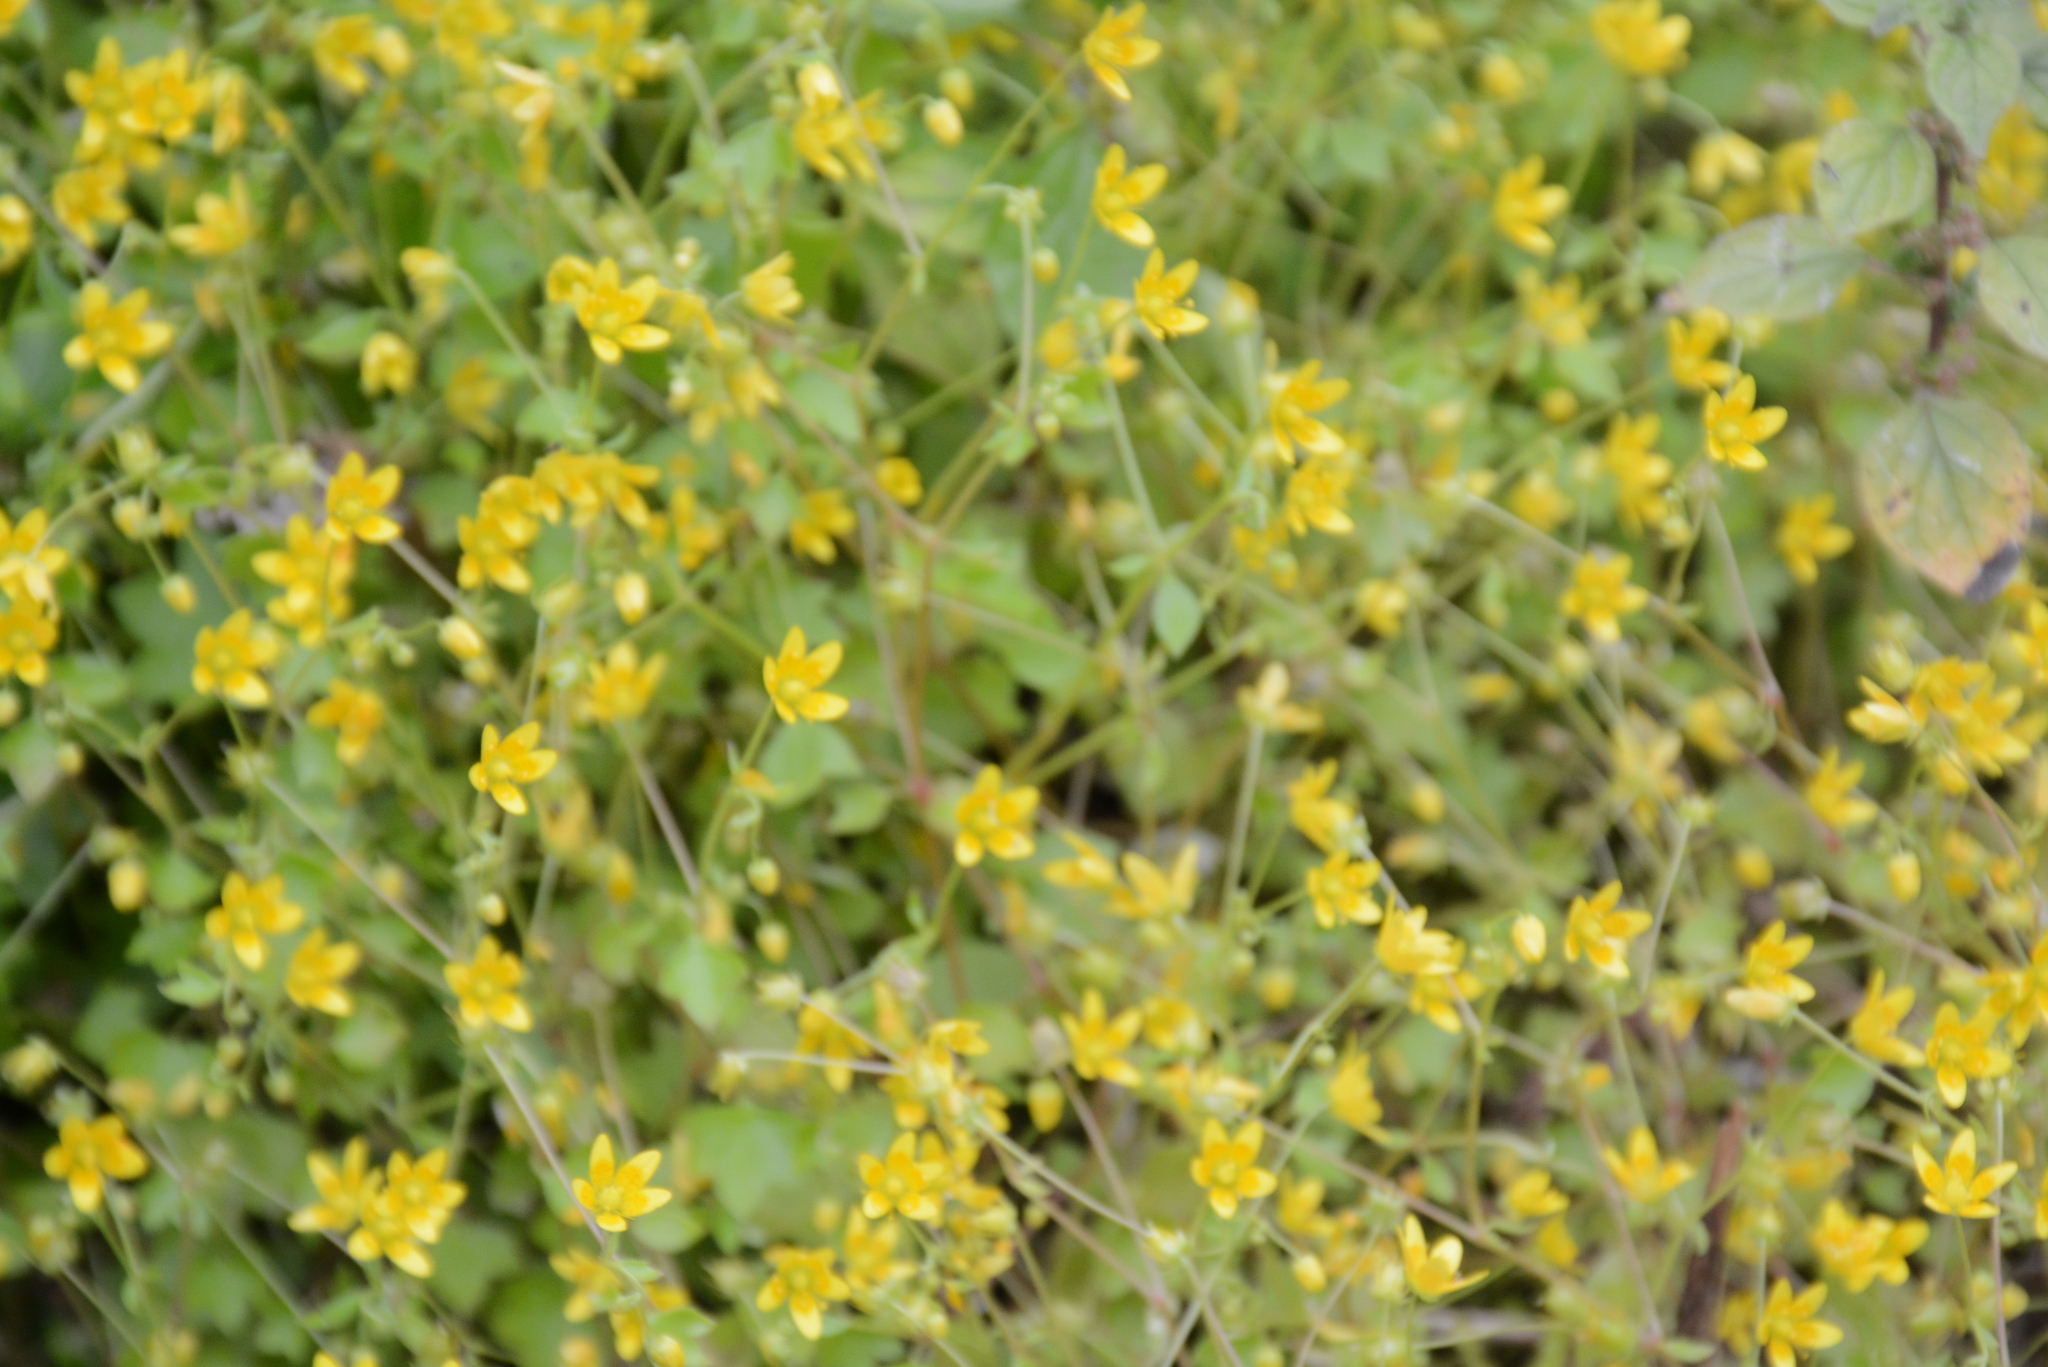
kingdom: Plantae
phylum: Tracheophyta
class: Magnoliopsida
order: Saxifragales
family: Saxifragaceae
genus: Saxifraga
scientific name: Saxifraga cymbalaria
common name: Celandine saxifrage
